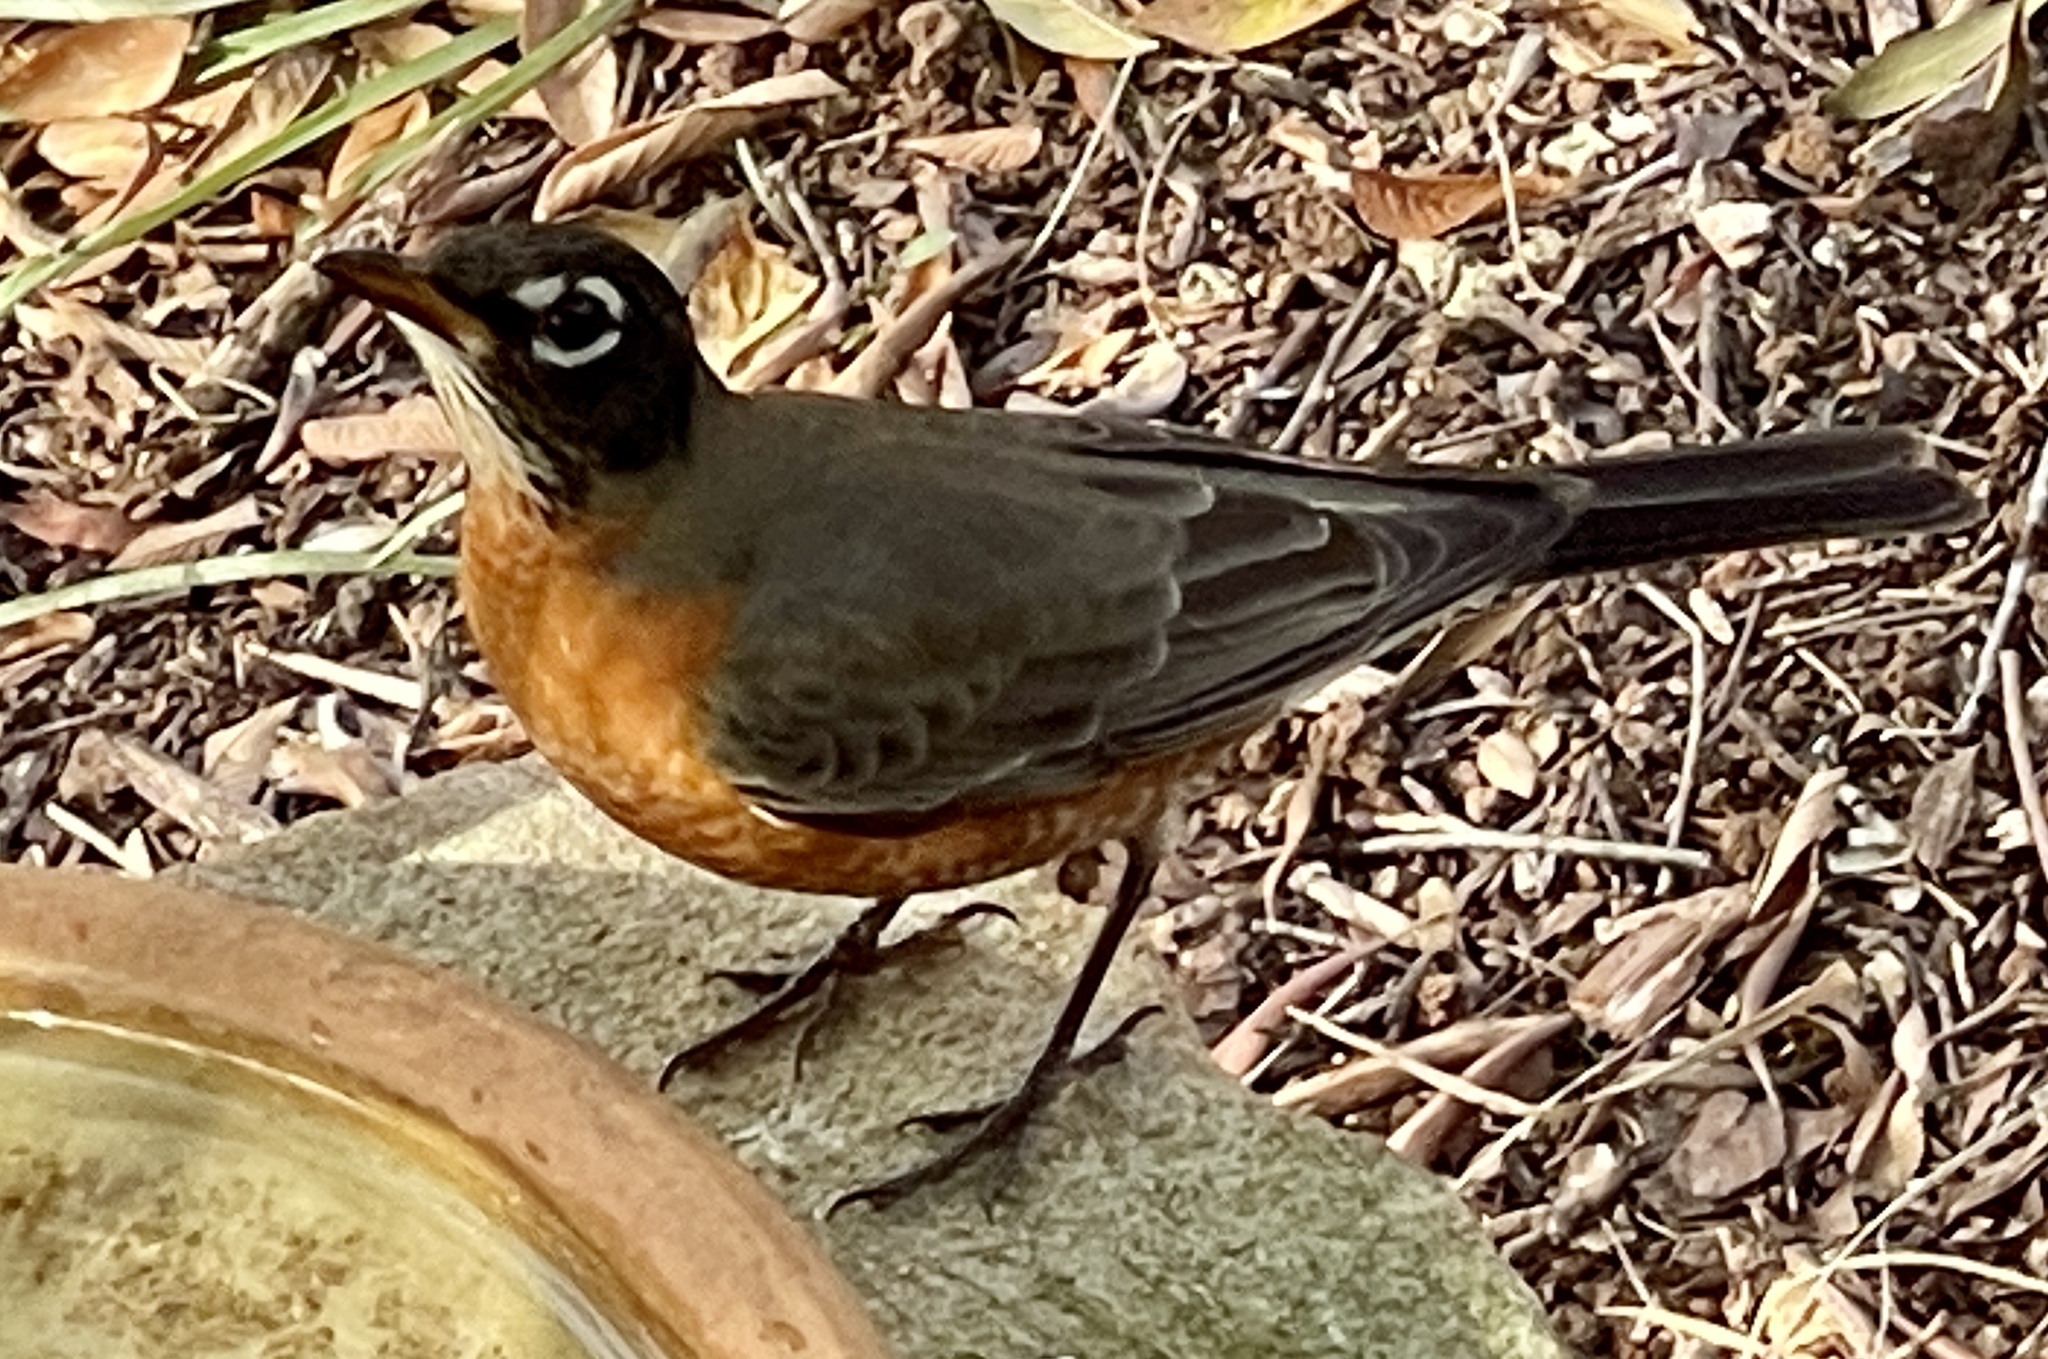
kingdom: Animalia
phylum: Chordata
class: Aves
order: Passeriformes
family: Turdidae
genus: Turdus
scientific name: Turdus migratorius
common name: American robin
